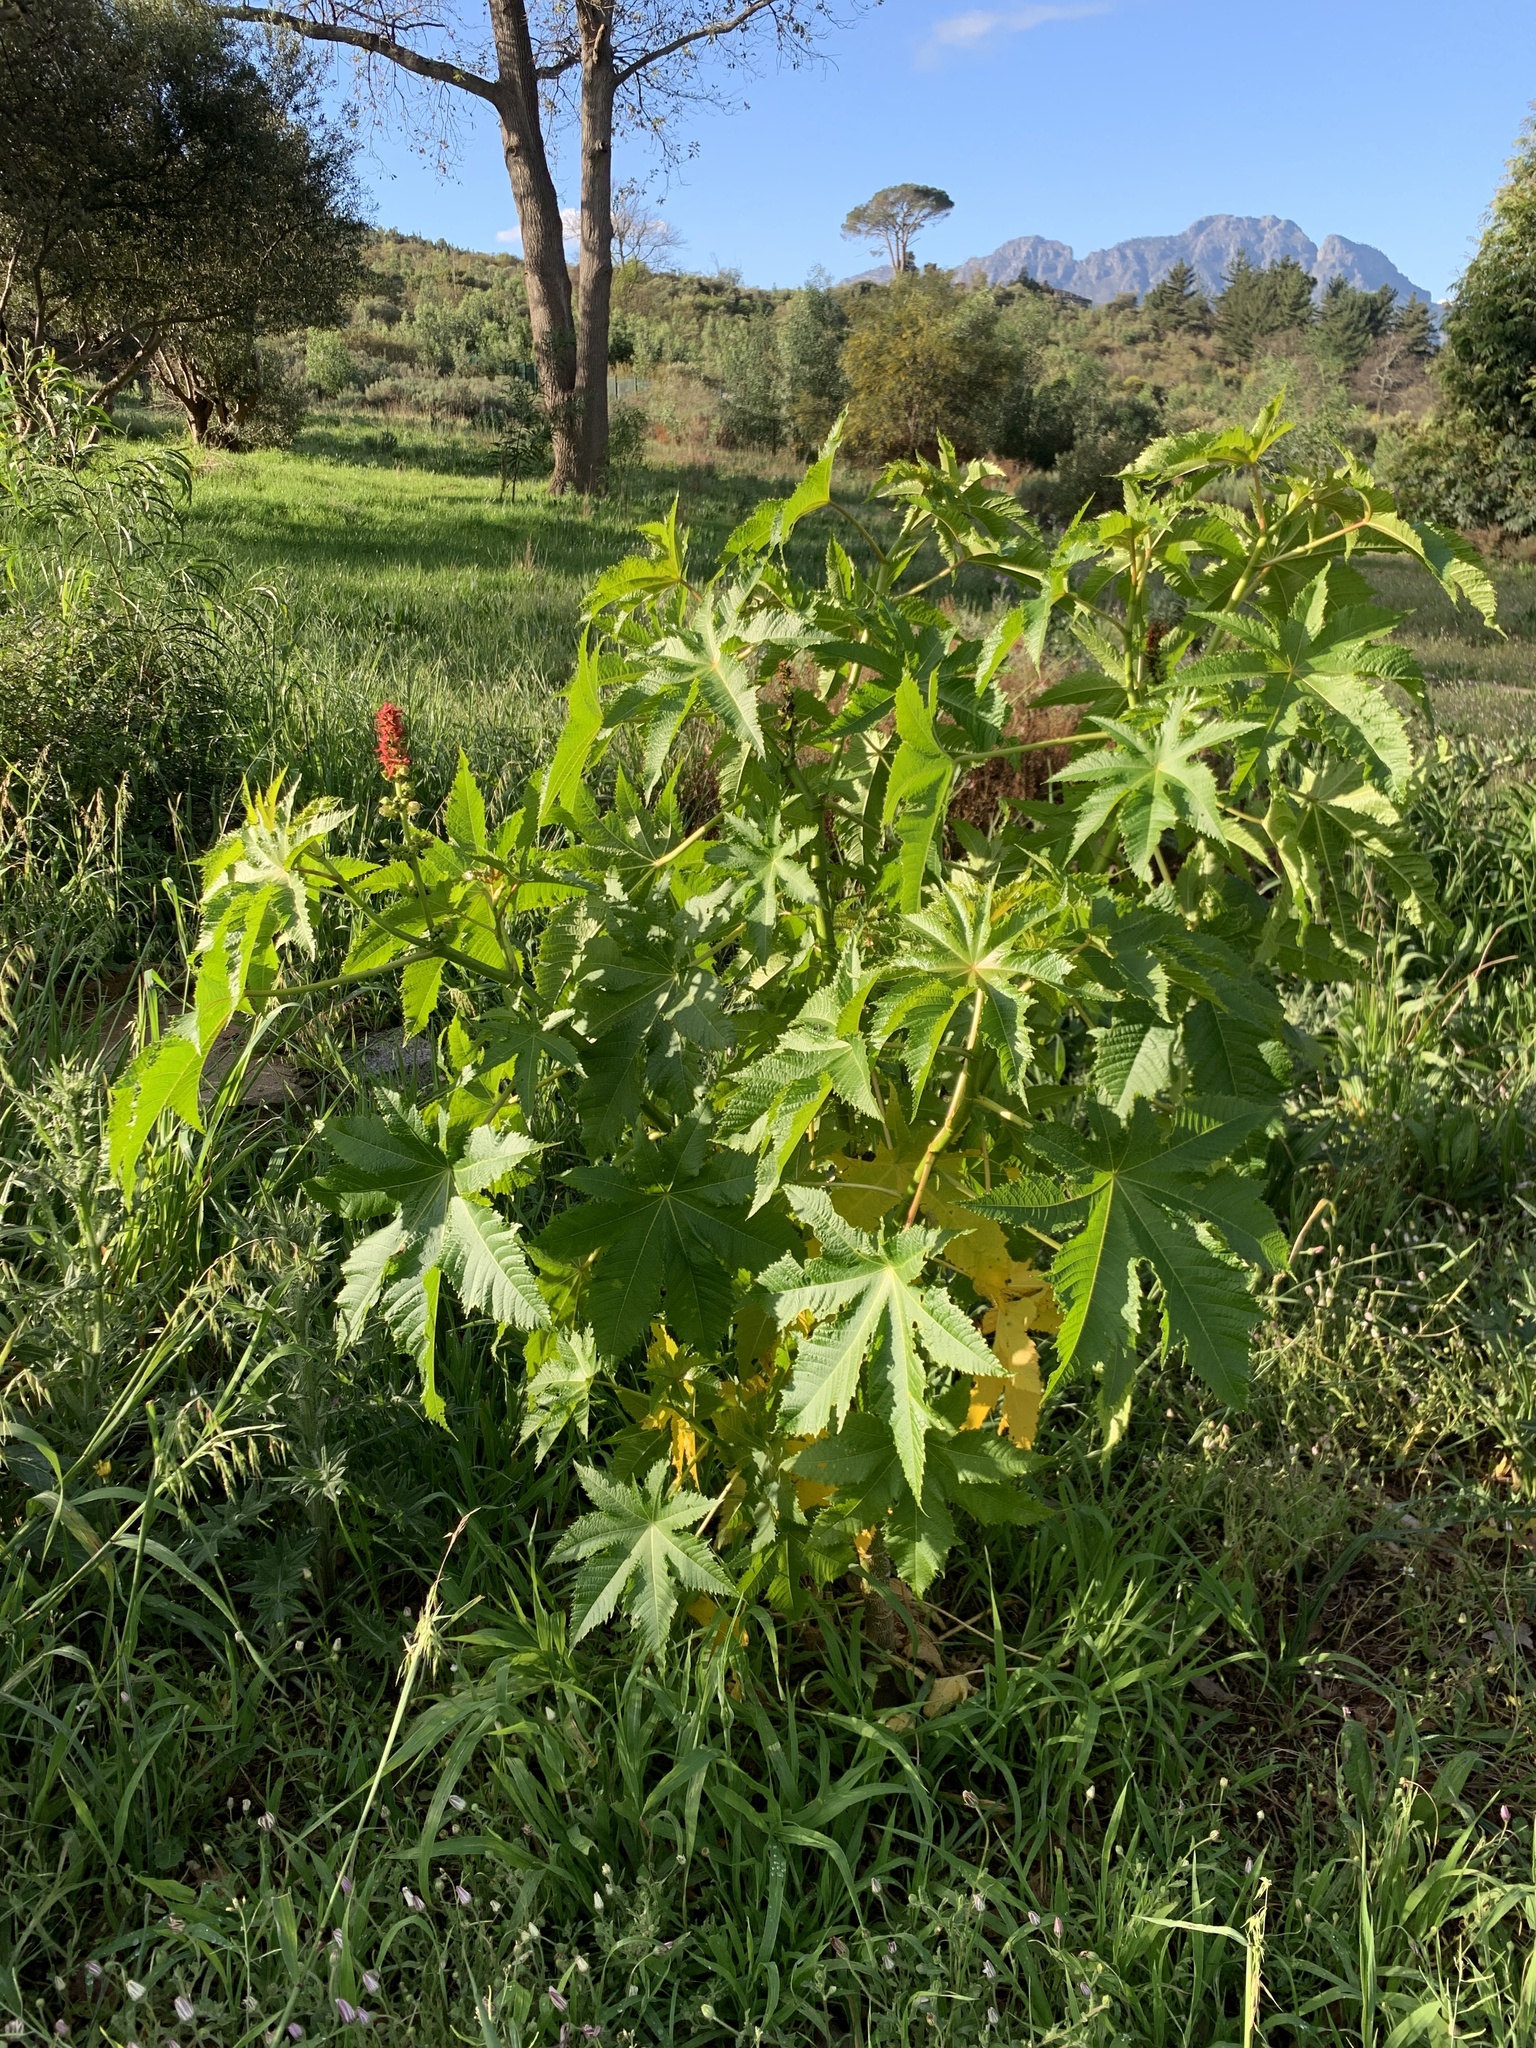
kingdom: Plantae
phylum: Tracheophyta
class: Magnoliopsida
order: Malpighiales
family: Euphorbiaceae
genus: Ricinus
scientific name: Ricinus communis
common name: Castor-oil-plant
